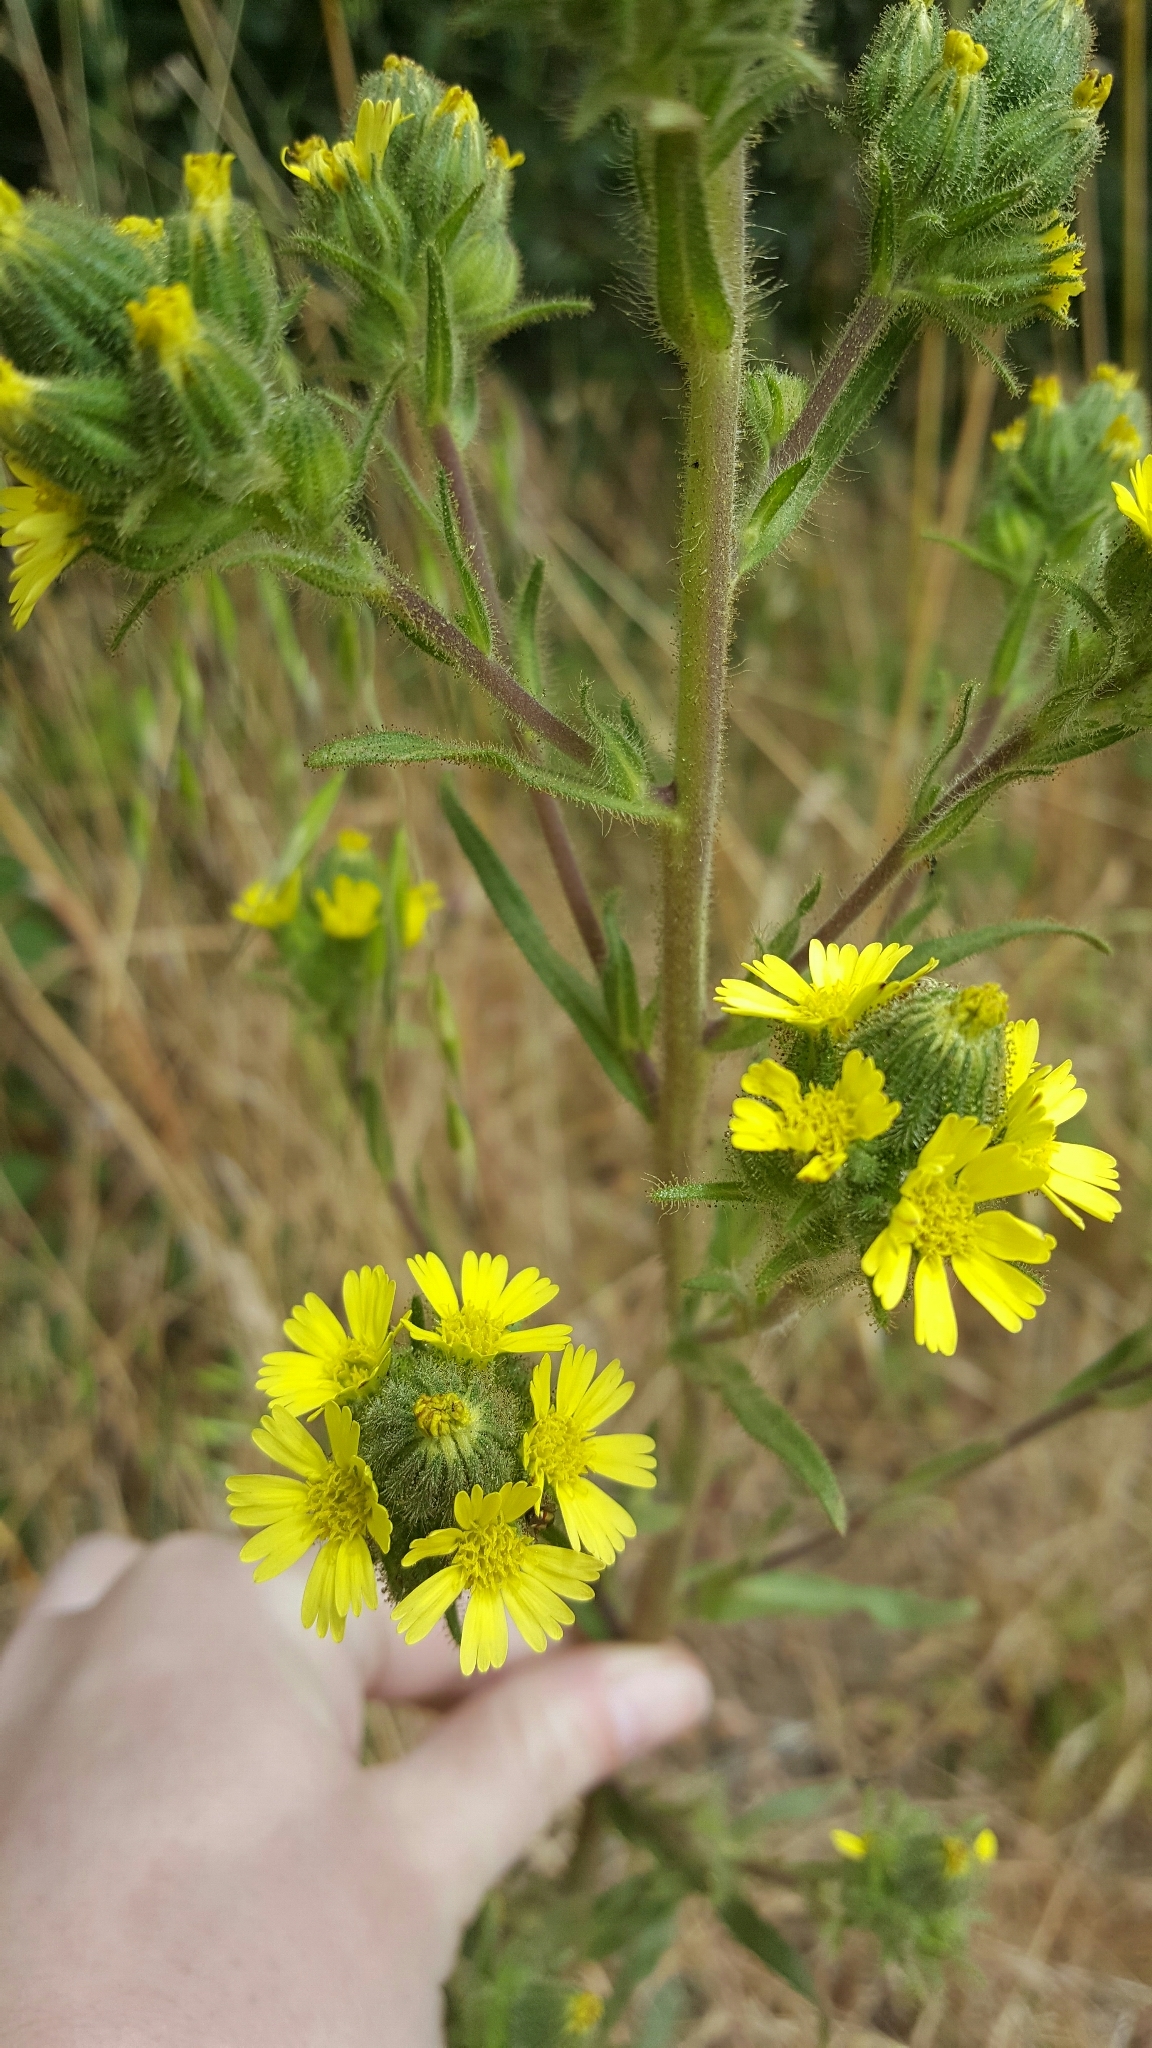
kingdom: Plantae
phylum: Tracheophyta
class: Magnoliopsida
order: Asterales
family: Asteraceae
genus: Madia
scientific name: Madia sativa
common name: Coast tarweed
